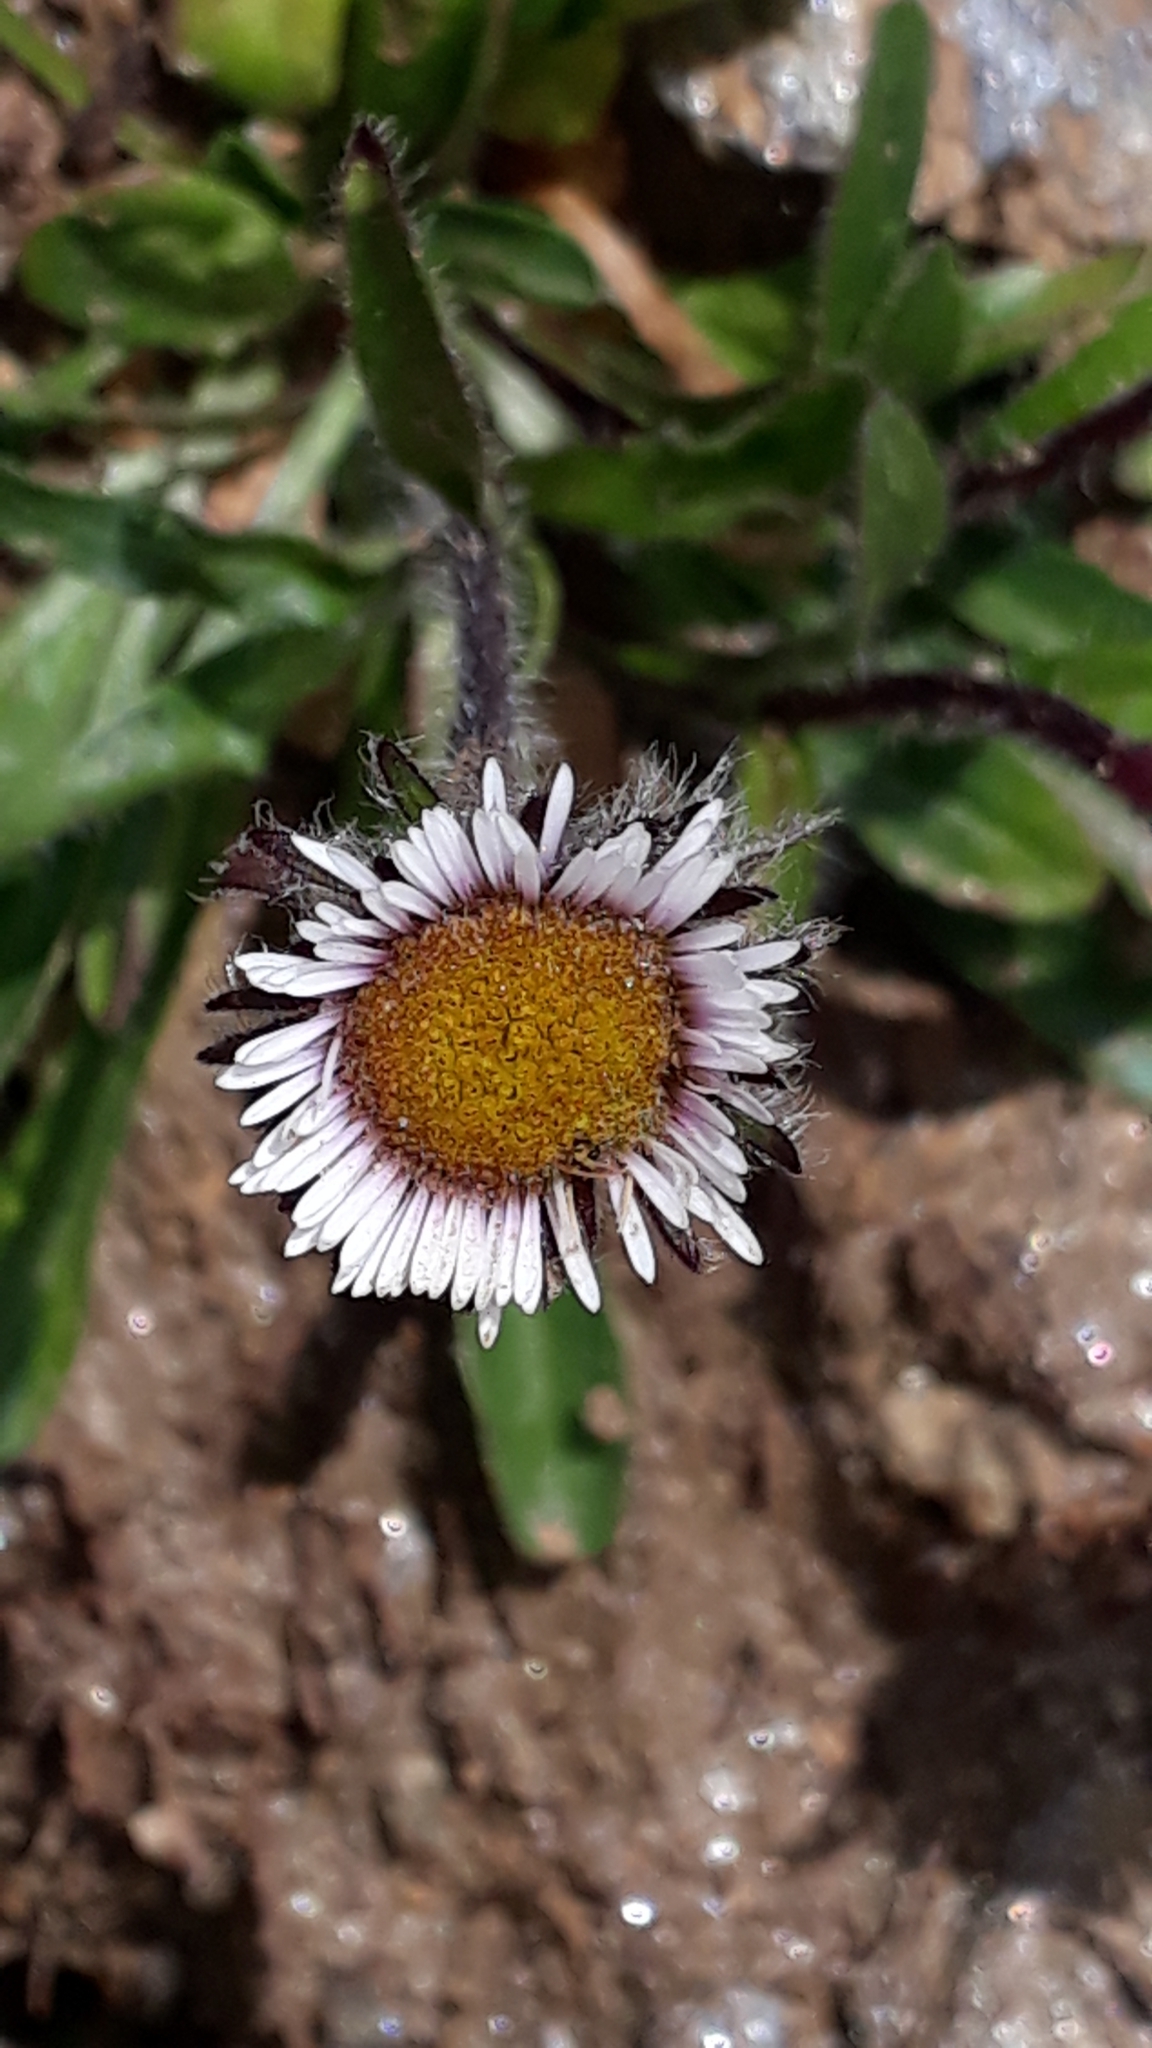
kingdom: Plantae
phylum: Tracheophyta
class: Magnoliopsida
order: Asterales
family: Asteraceae
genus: Erigeron
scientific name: Erigeron uniflorus
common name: Northern daisy
